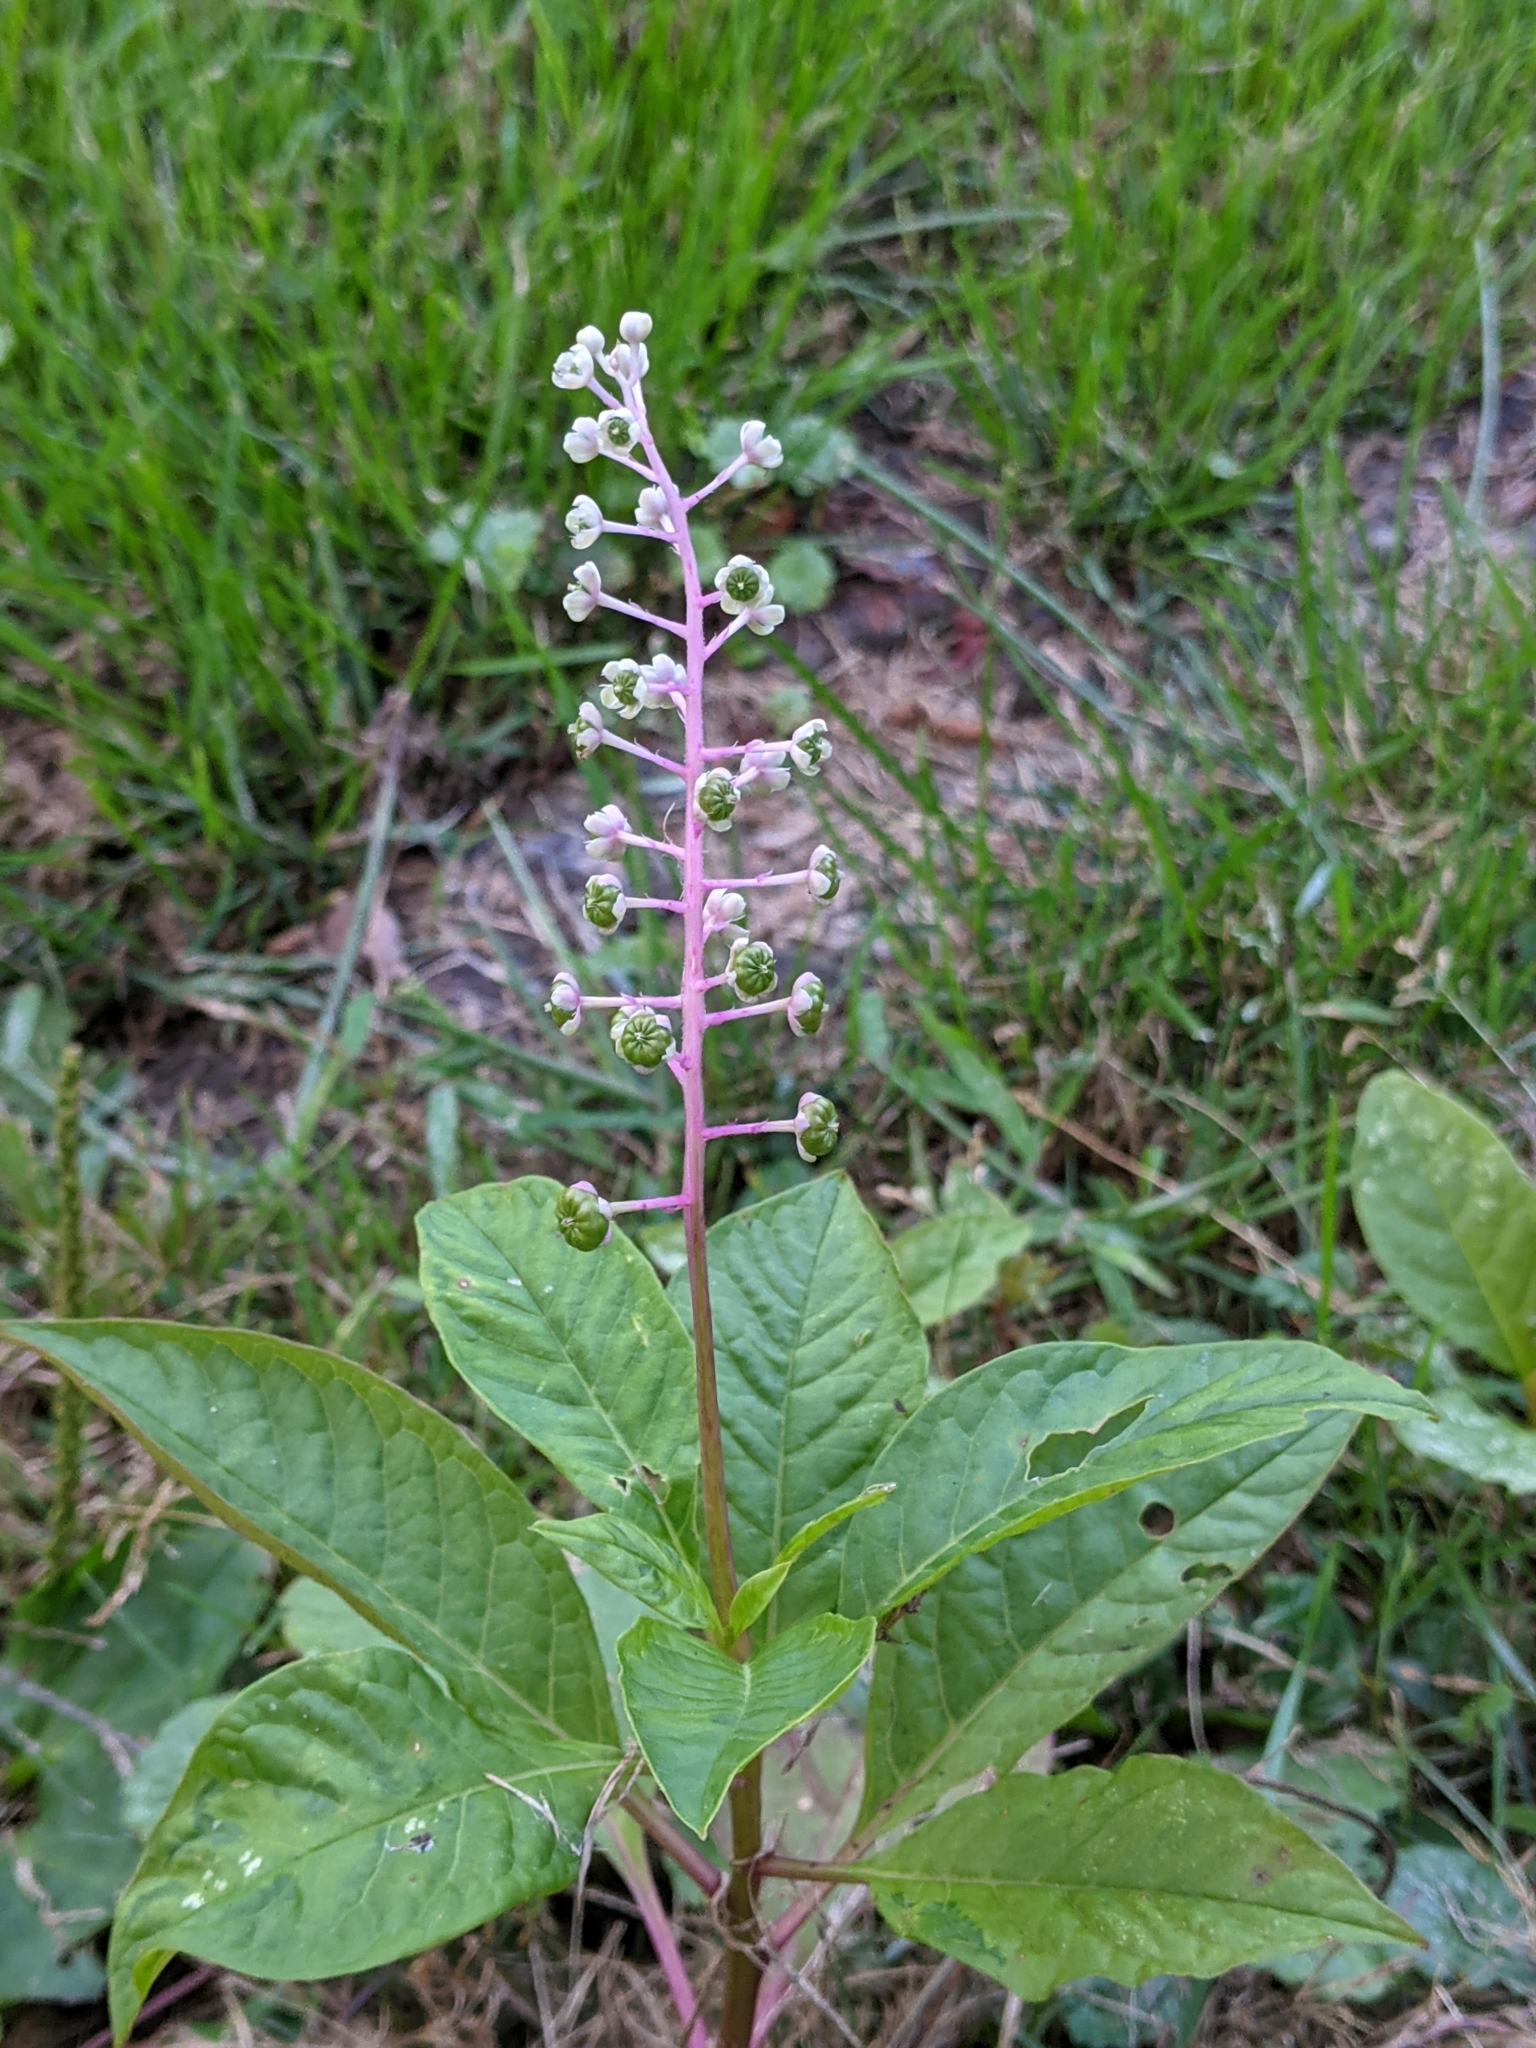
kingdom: Plantae
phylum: Tracheophyta
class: Magnoliopsida
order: Caryophyllales
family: Phytolaccaceae
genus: Phytolacca
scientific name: Phytolacca americana
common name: American pokeweed
